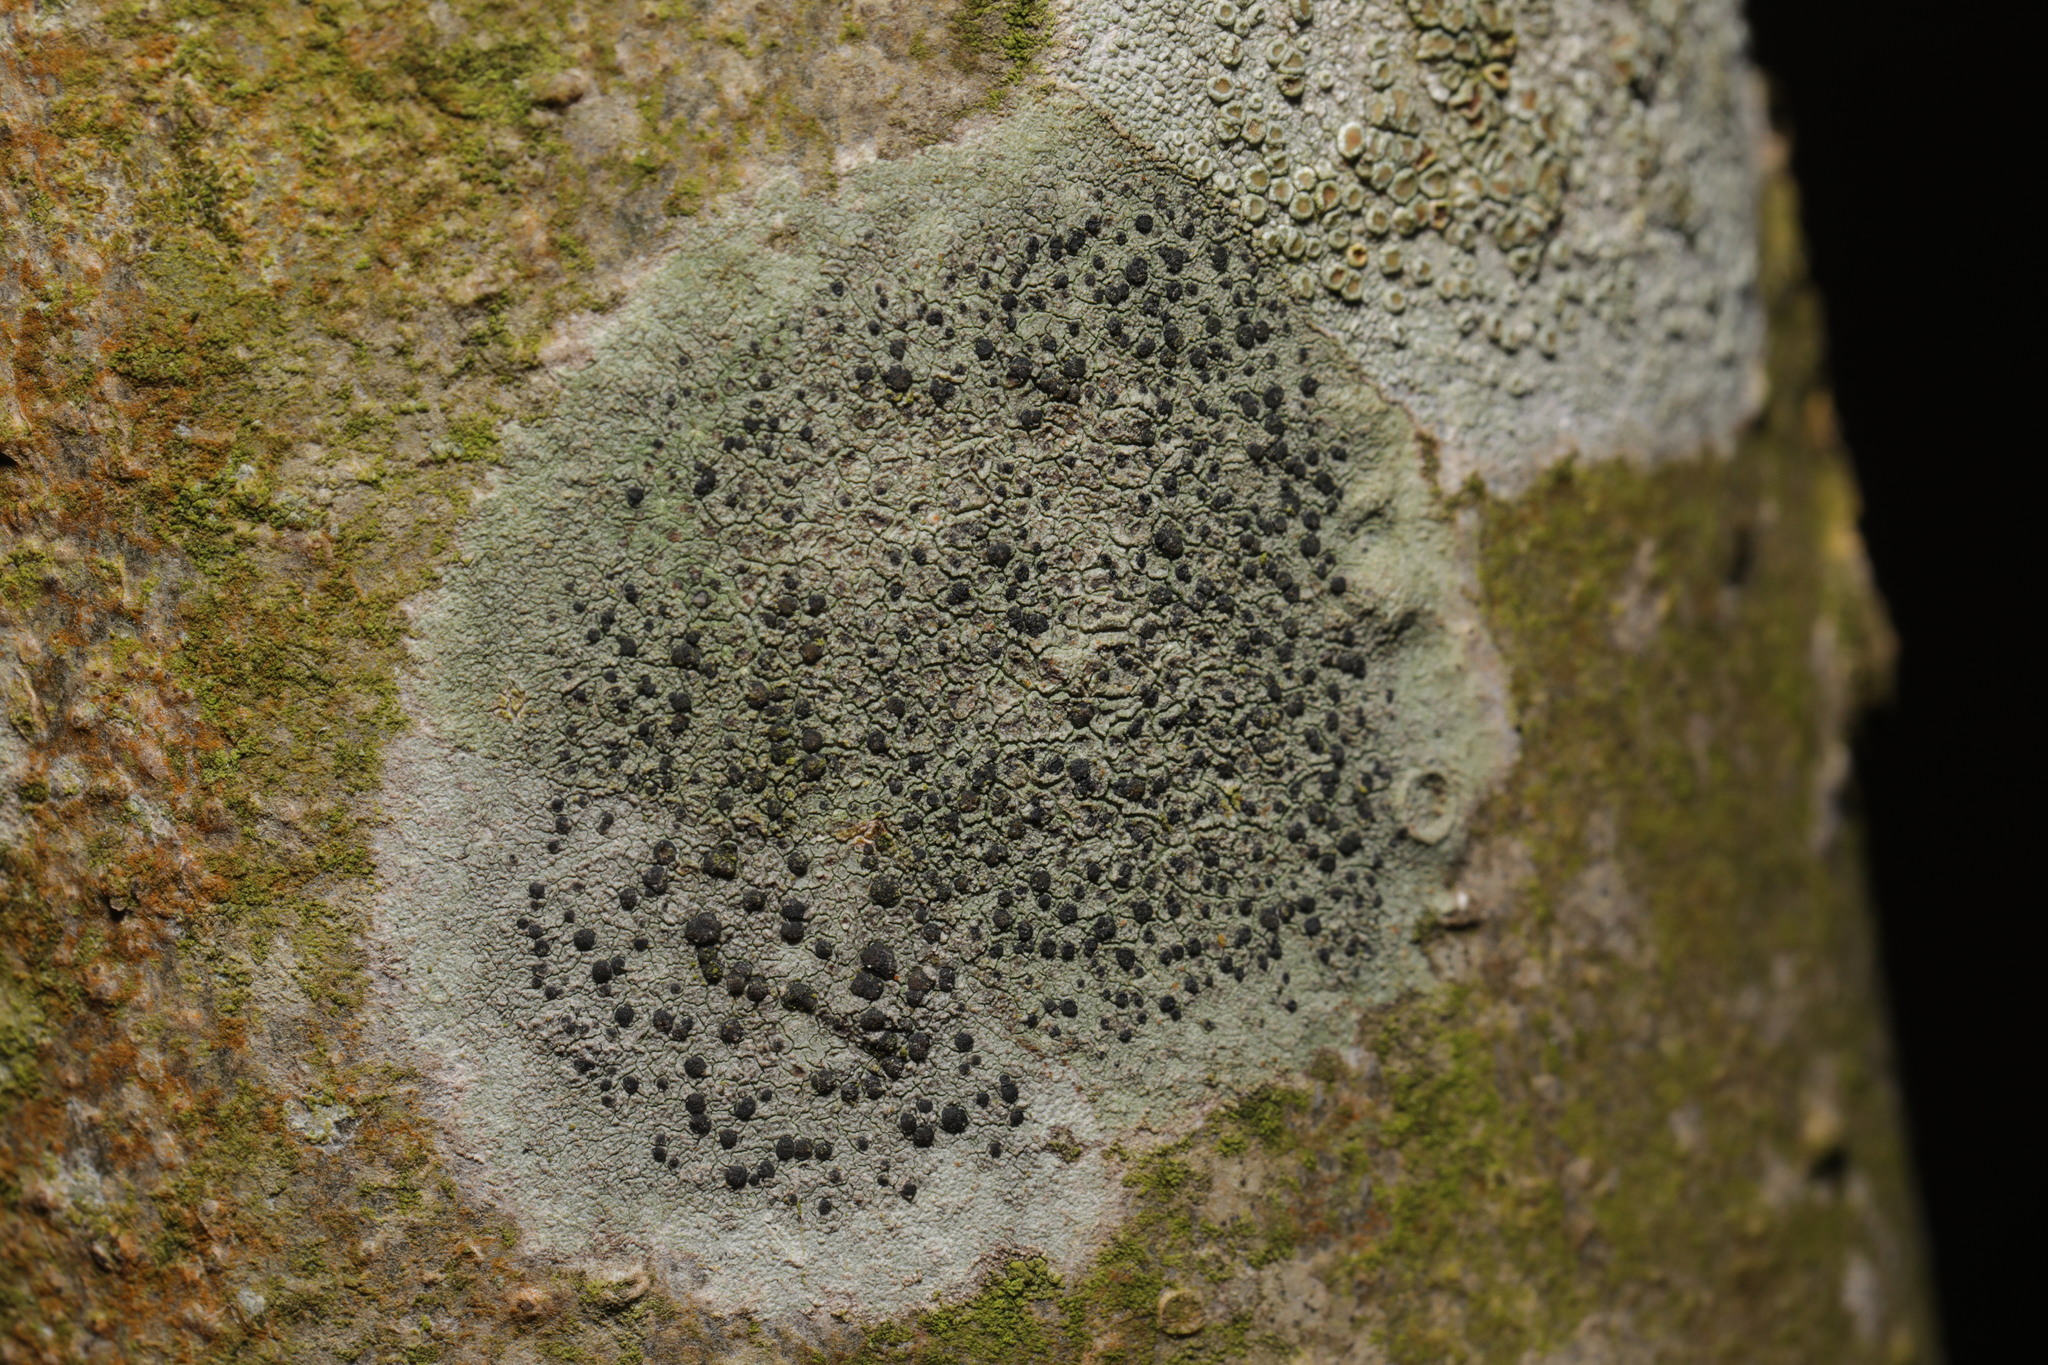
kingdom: Fungi
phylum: Ascomycota
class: Lecanoromycetes
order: Lecanorales
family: Lecanoraceae
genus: Lecidella
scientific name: Lecidella elaeochroma
